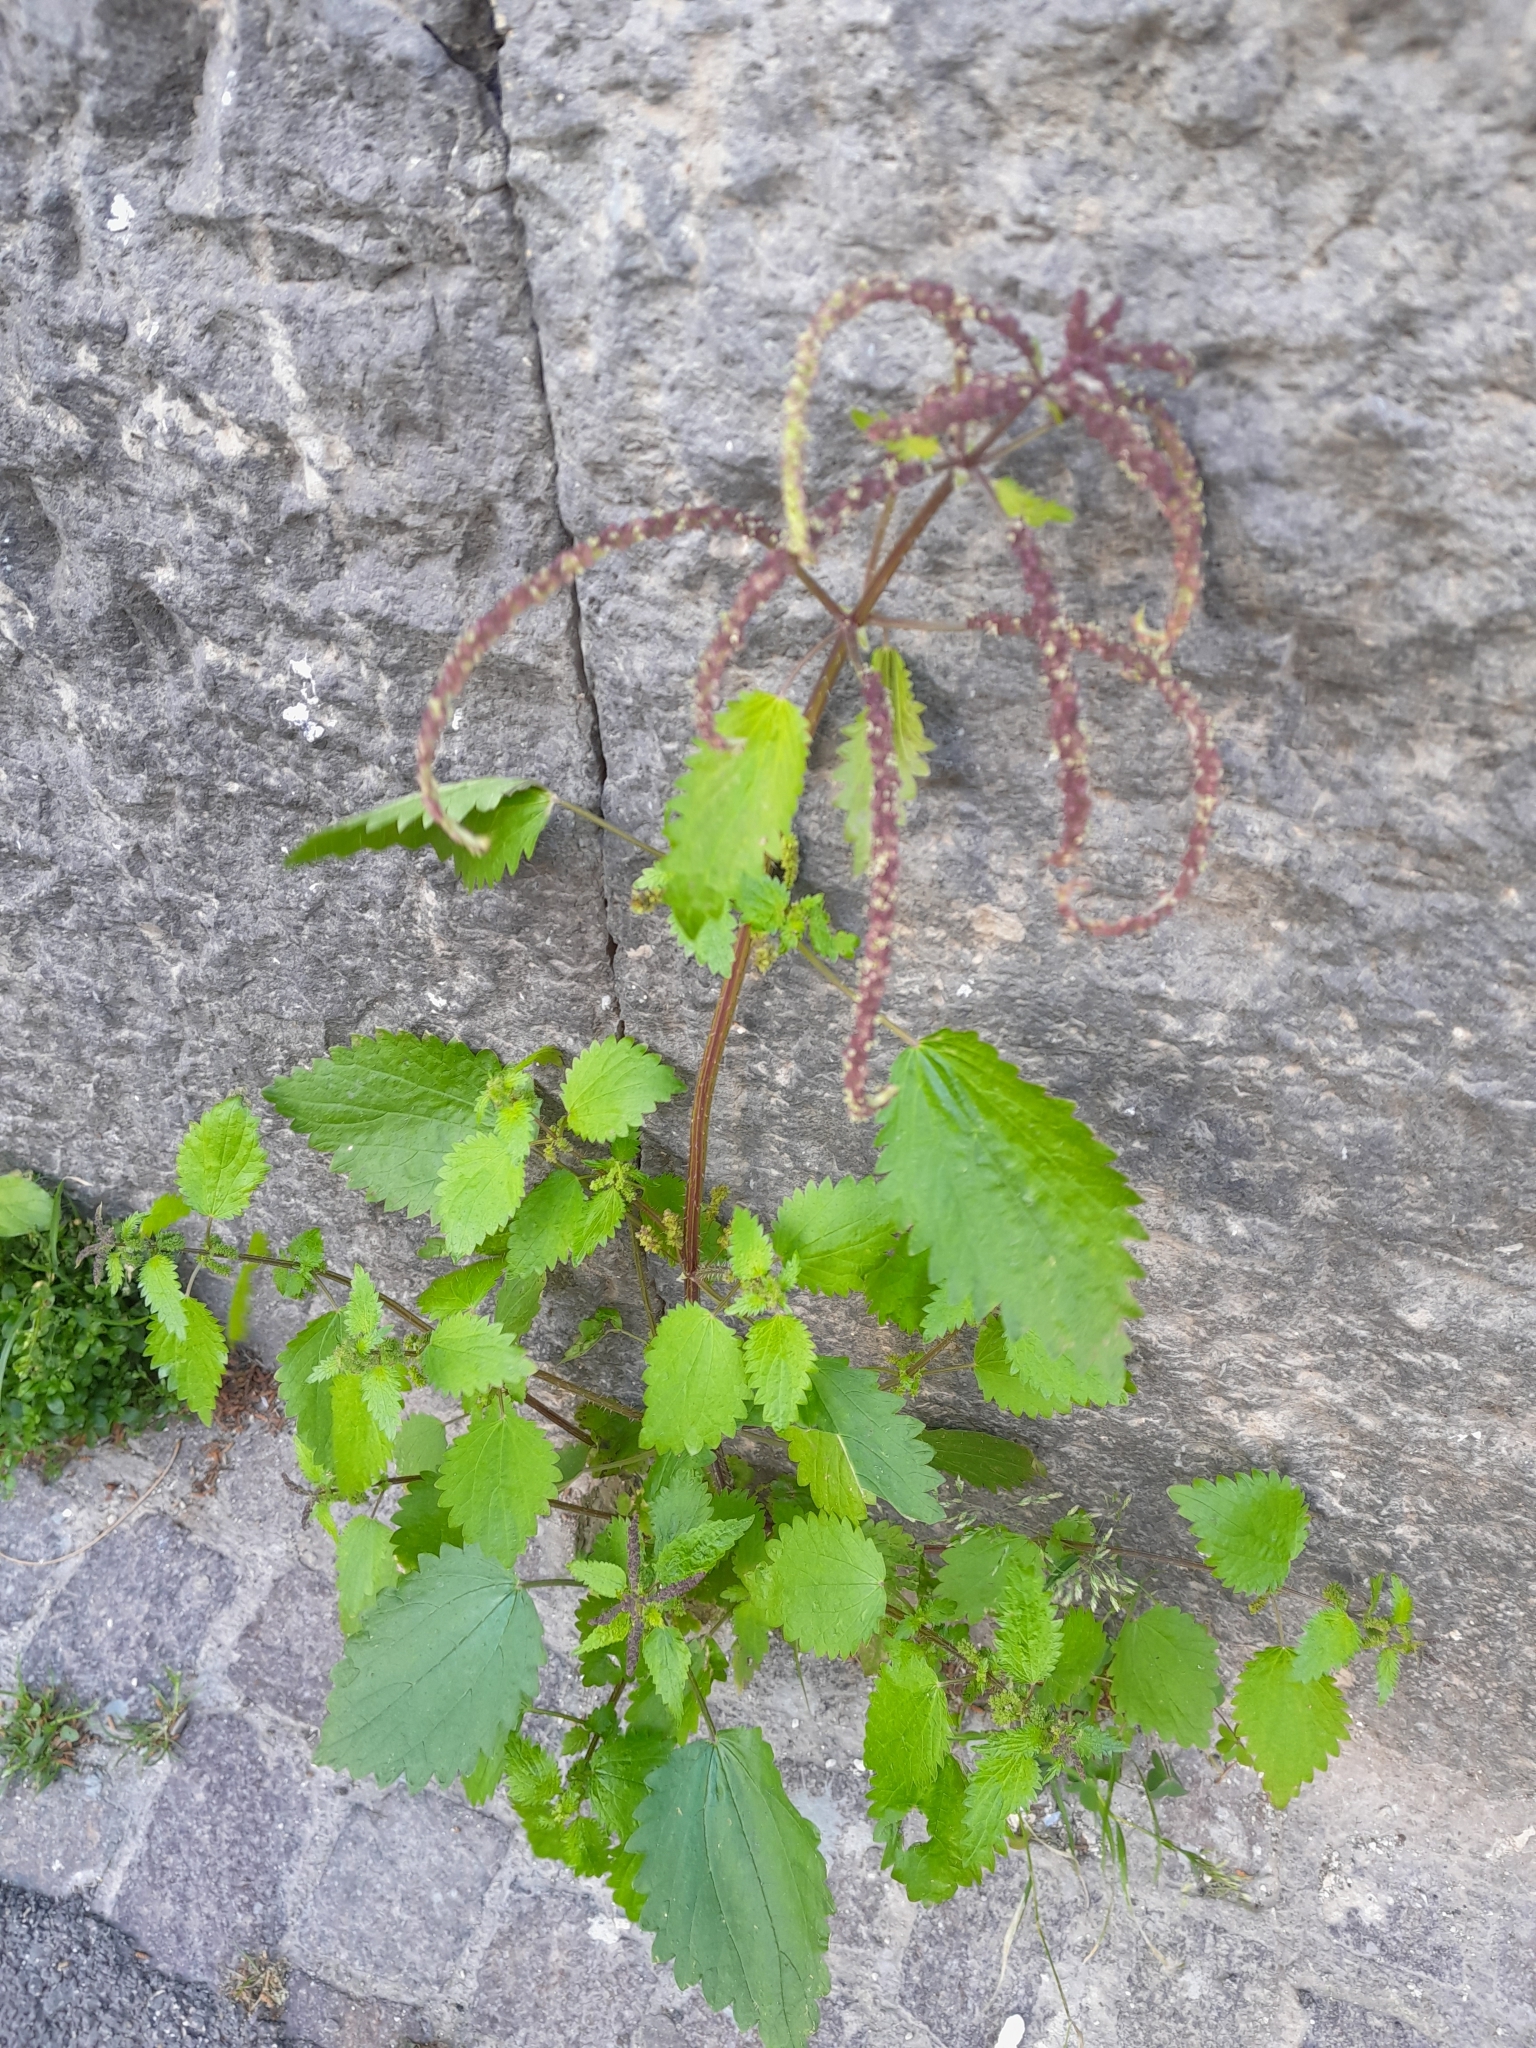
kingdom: Plantae
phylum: Tracheophyta
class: Magnoliopsida
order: Rosales
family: Urticaceae
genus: Urtica
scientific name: Urtica membranacea
